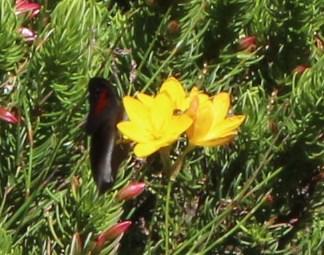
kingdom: Animalia
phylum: Arthropoda
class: Insecta
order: Lepidoptera
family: Nymphalidae
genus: Stygionympha
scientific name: Stygionympha vigilans
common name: Western hillside brown
